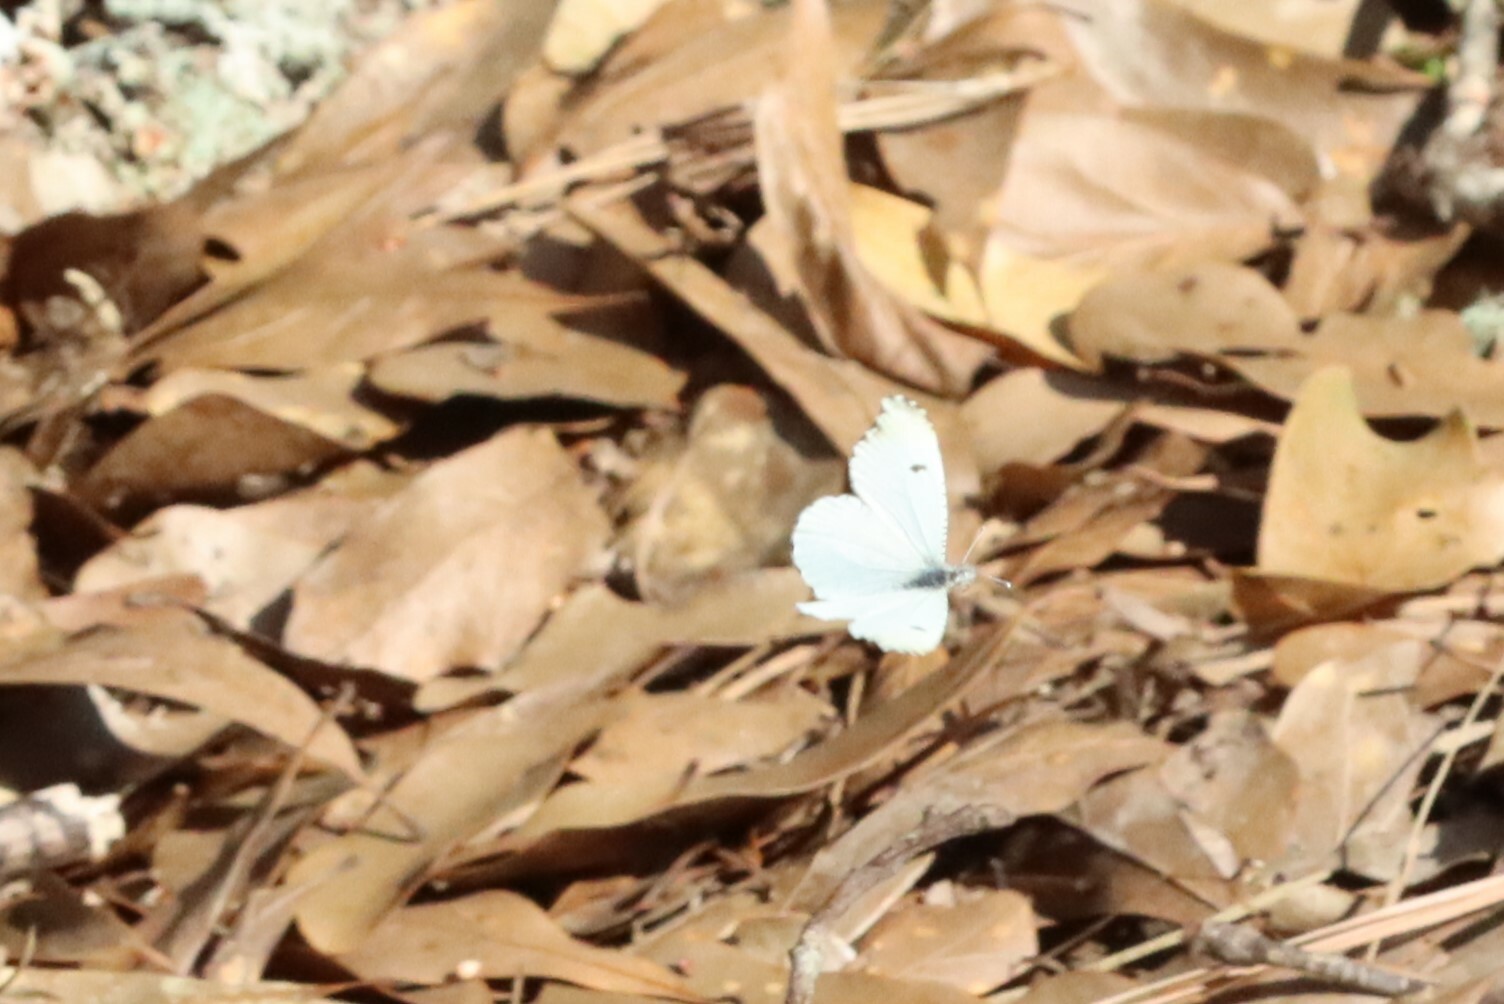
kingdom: Animalia
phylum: Arthropoda
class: Insecta
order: Lepidoptera
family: Pieridae
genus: Anthocharis
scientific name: Anthocharis midea
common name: Falcate orangetip
